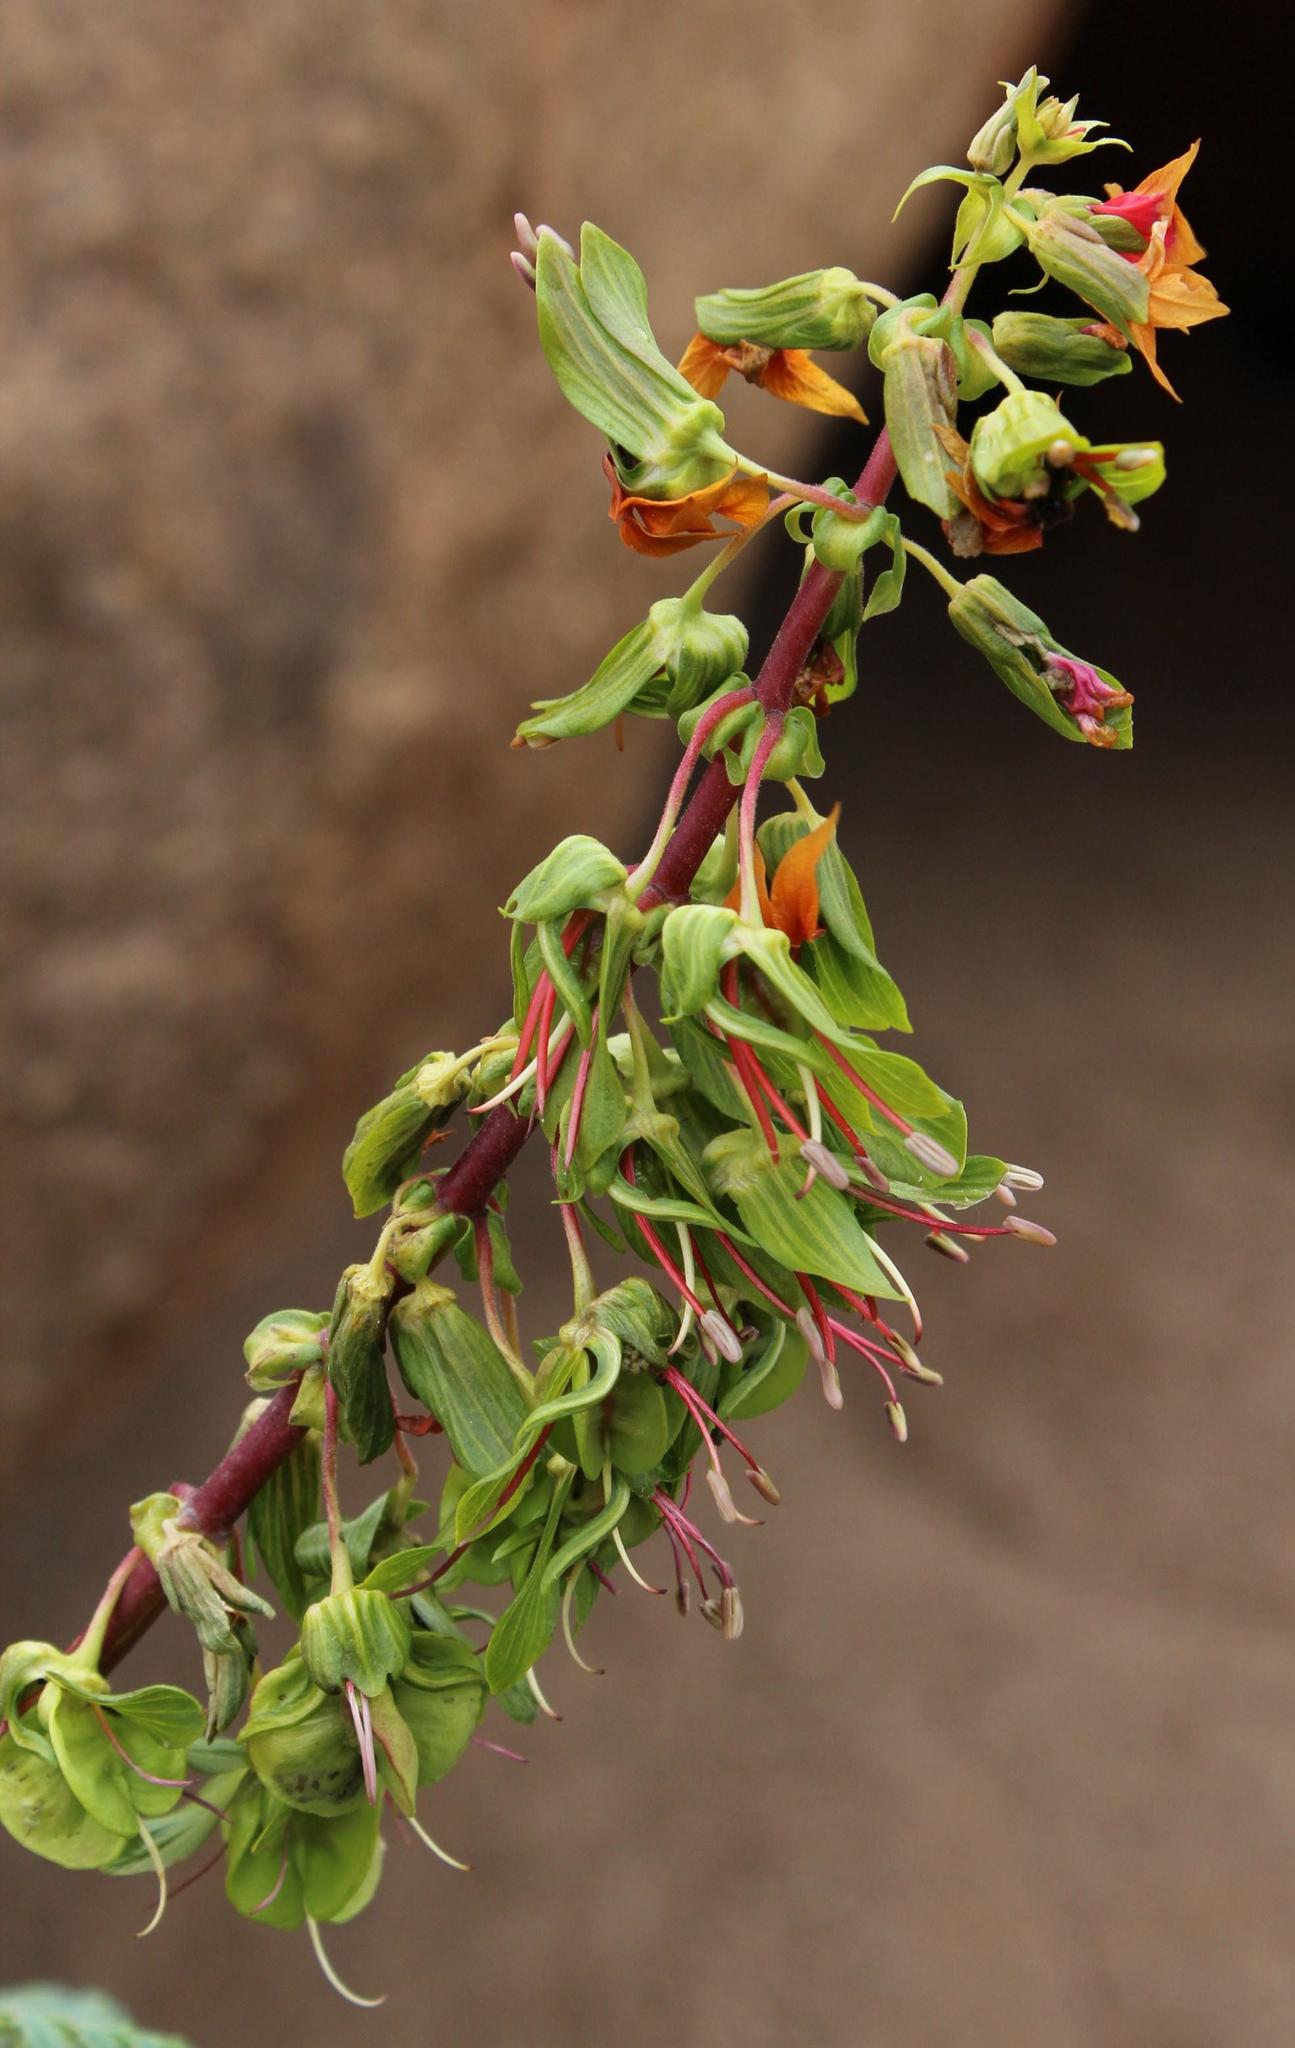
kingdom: Plantae
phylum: Tracheophyta
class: Magnoliopsida
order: Geraniales
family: Melianthaceae
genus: Melianthus
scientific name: Melianthus elongatus
